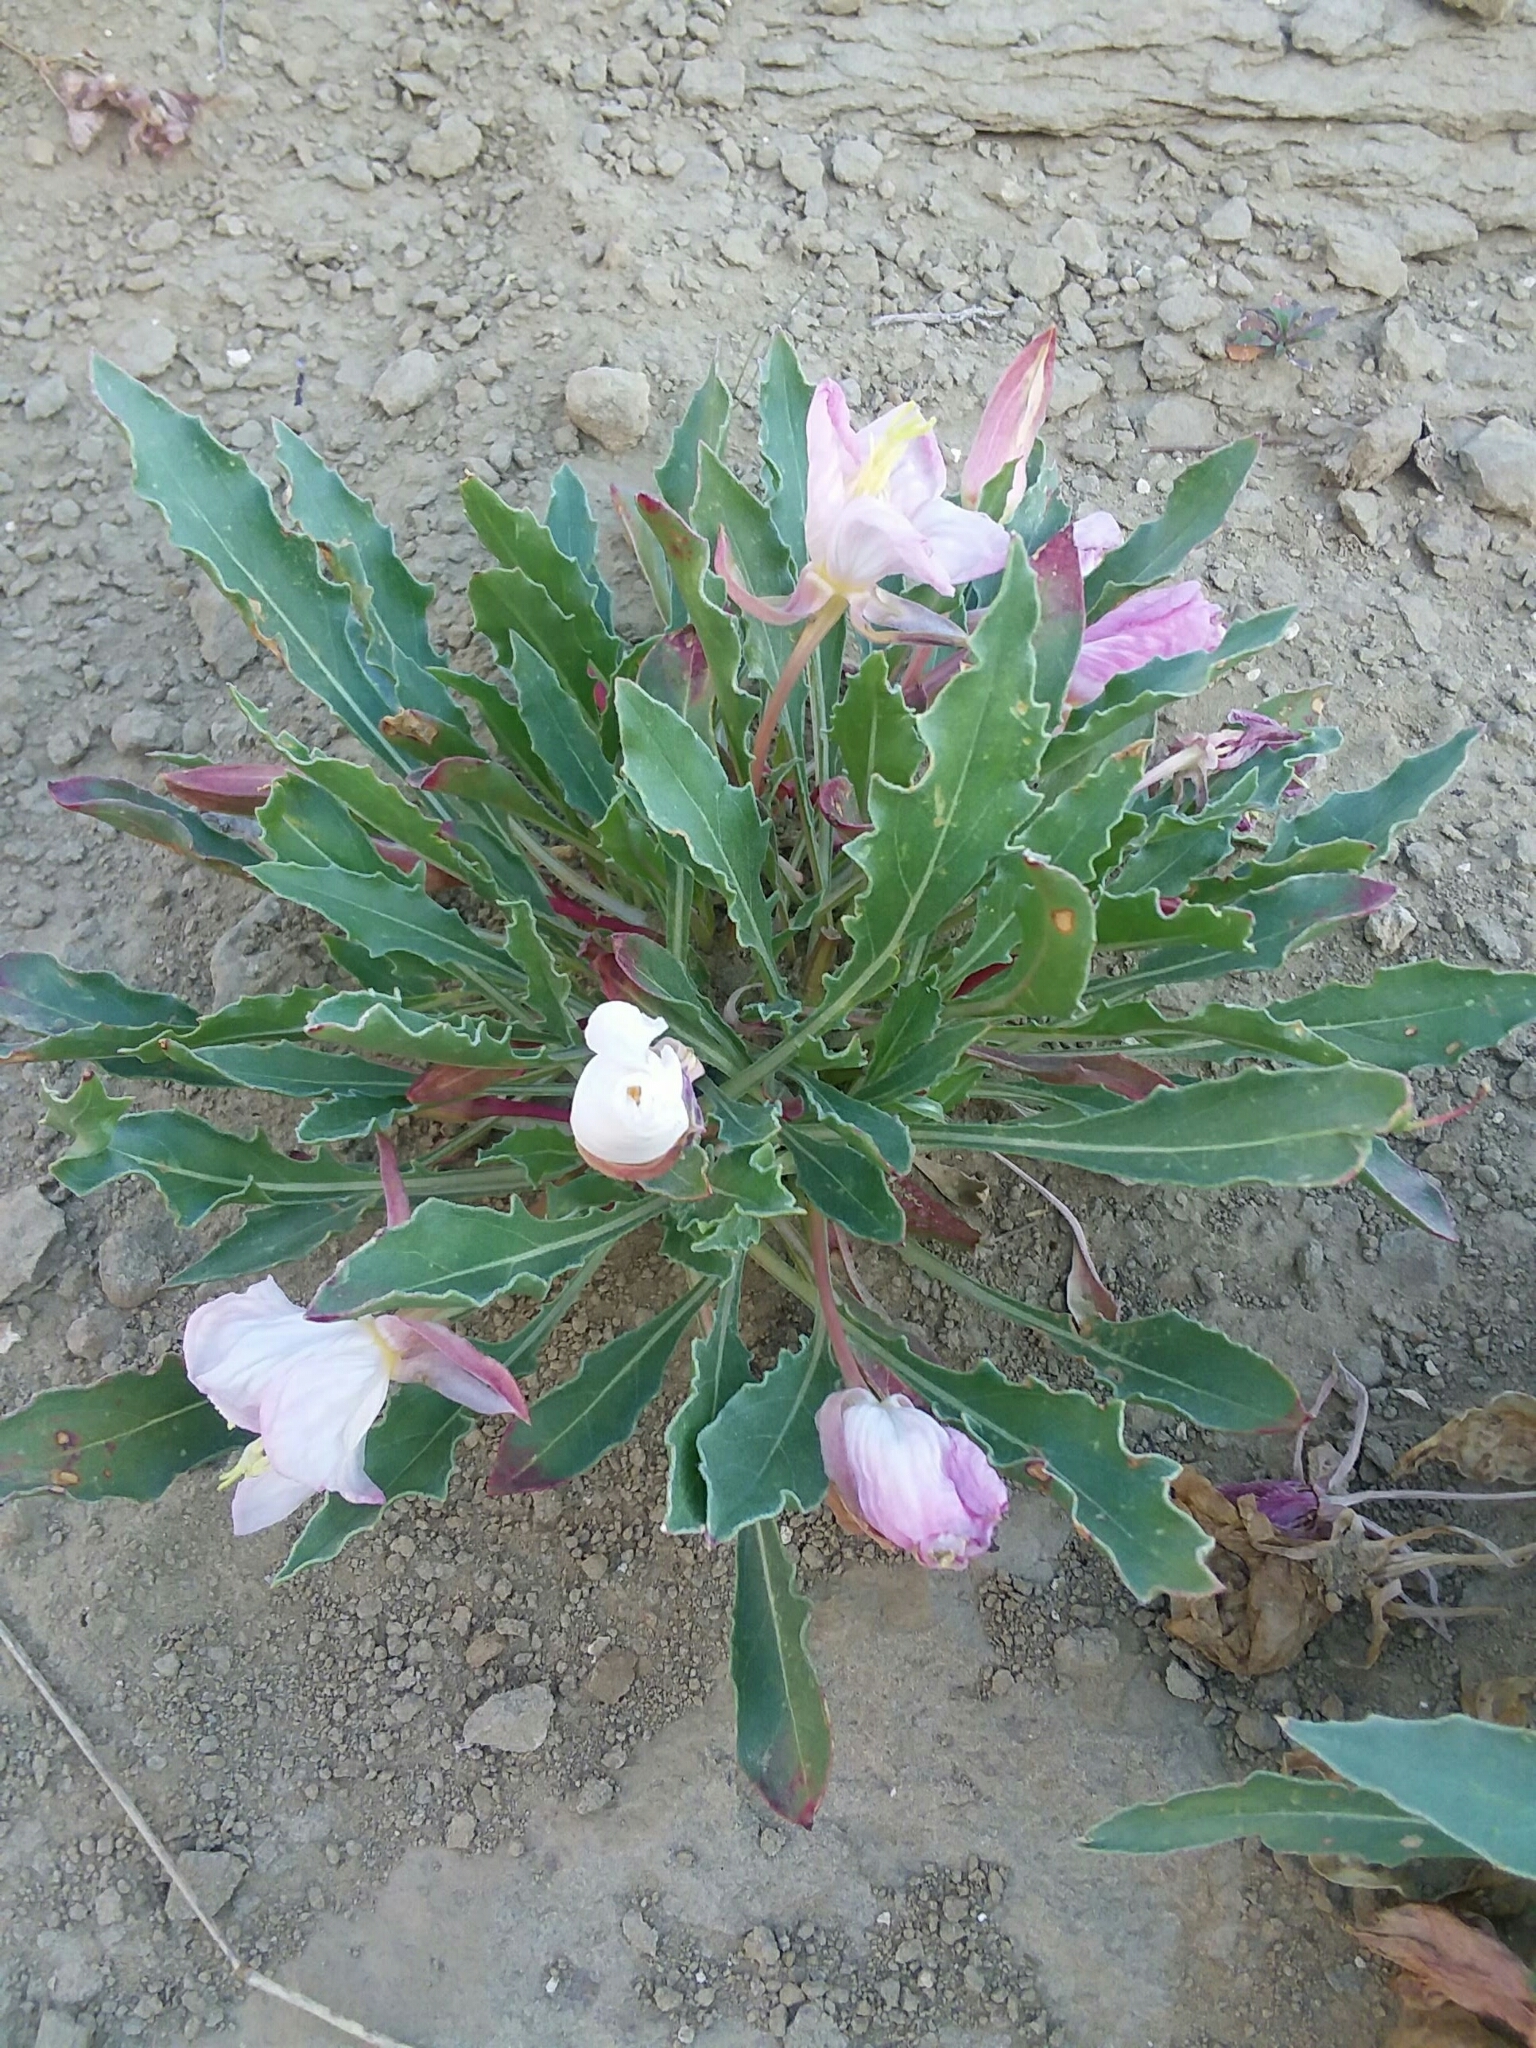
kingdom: Plantae
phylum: Tracheophyta
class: Magnoliopsida
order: Myrtales
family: Onagraceae
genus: Oenothera
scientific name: Oenothera cespitosa
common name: Tufted evening-primrose
